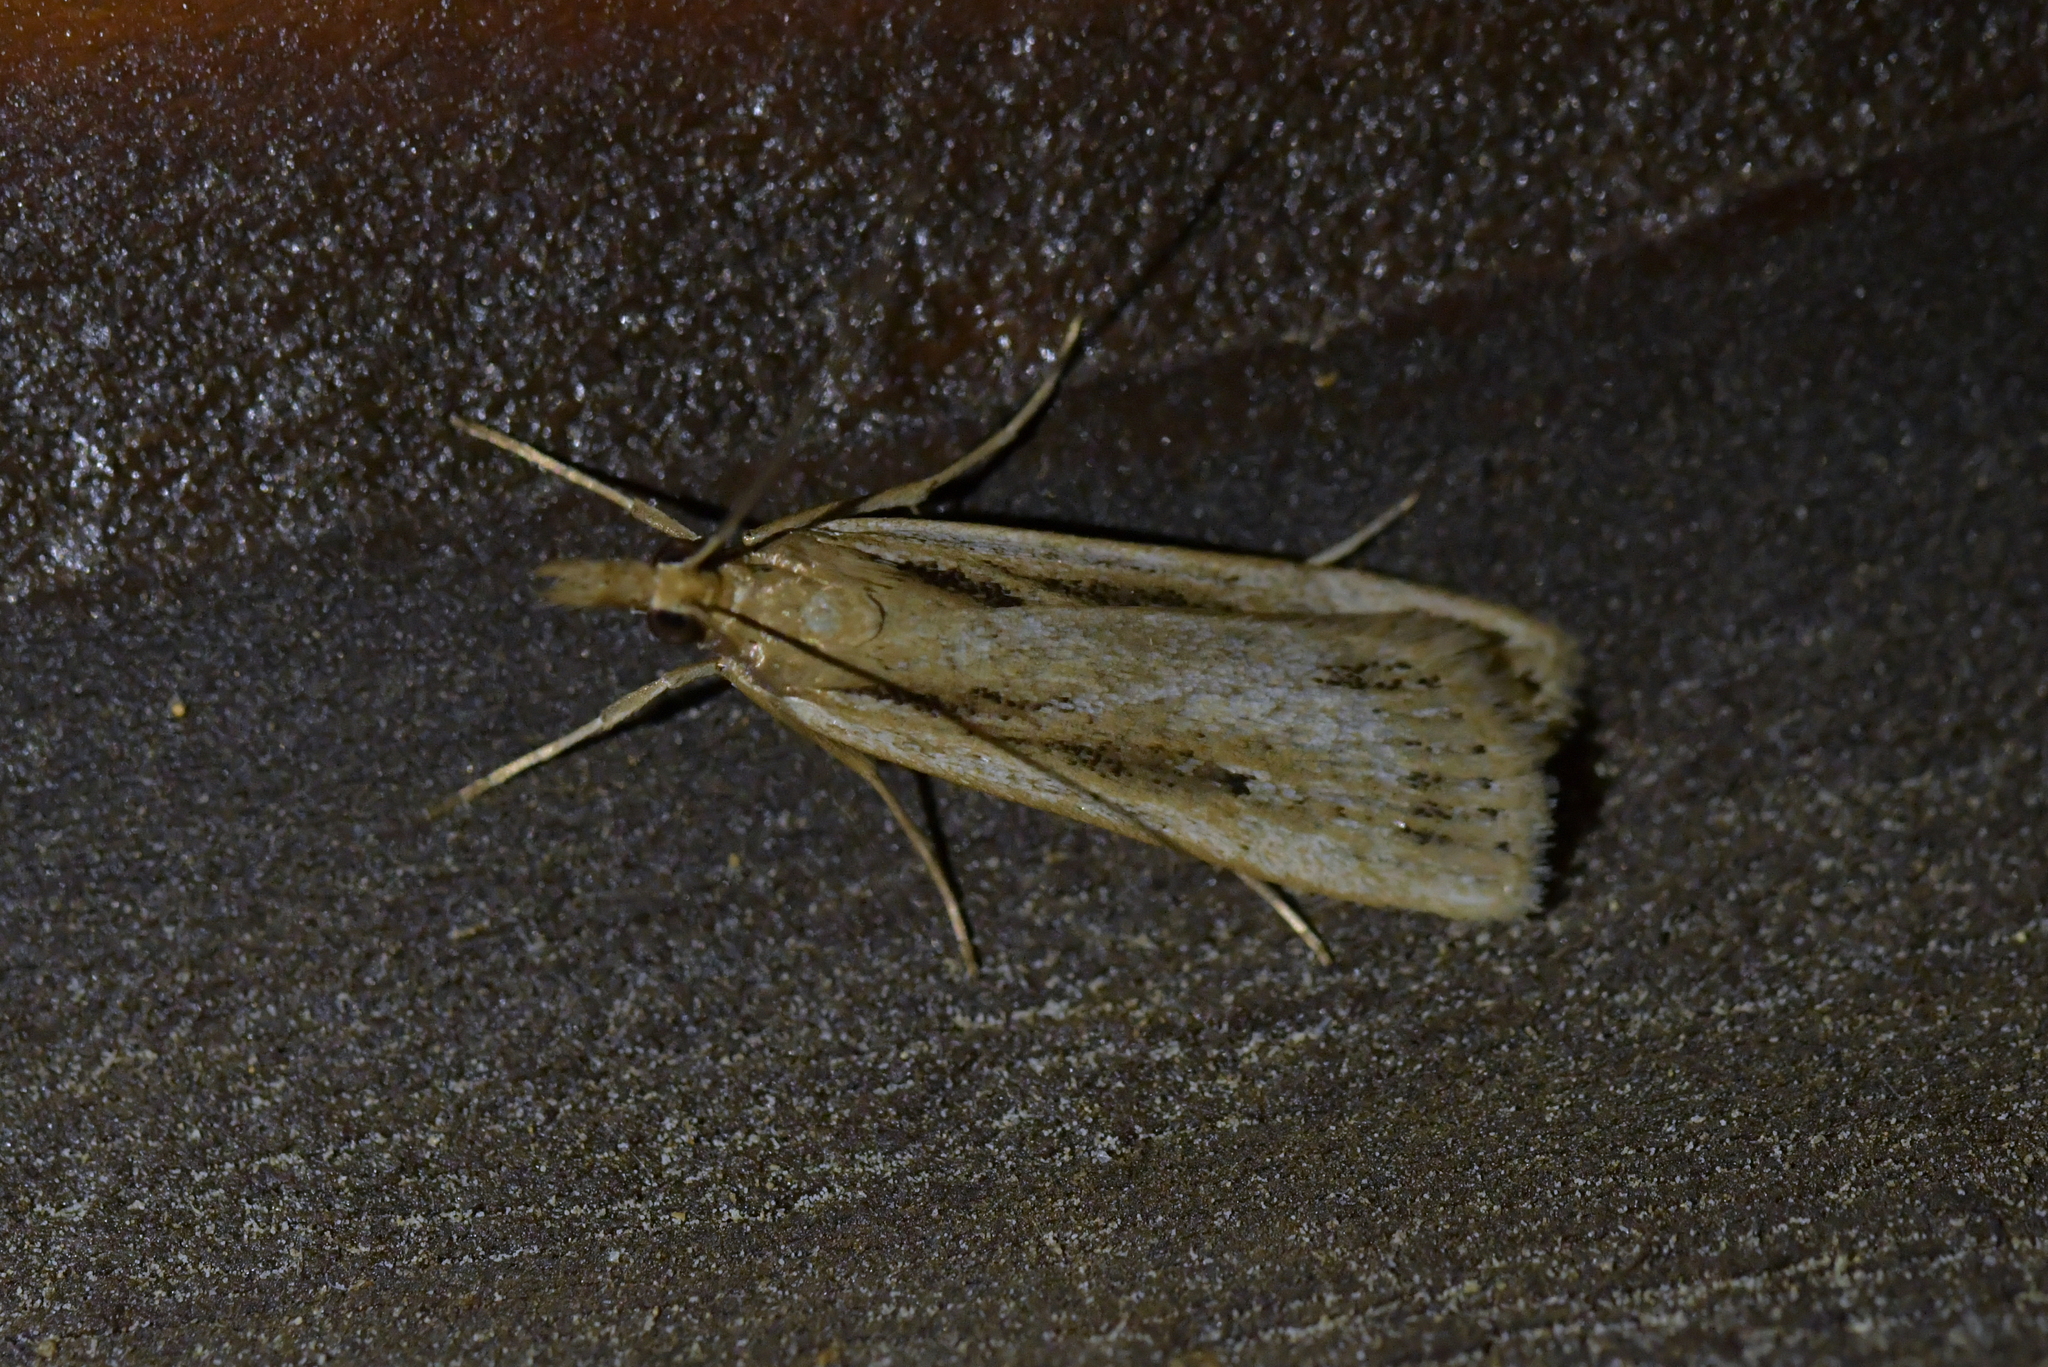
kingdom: Animalia
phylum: Arthropoda
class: Insecta
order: Lepidoptera
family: Crambidae
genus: Eudonia
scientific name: Eudonia sabulosella
